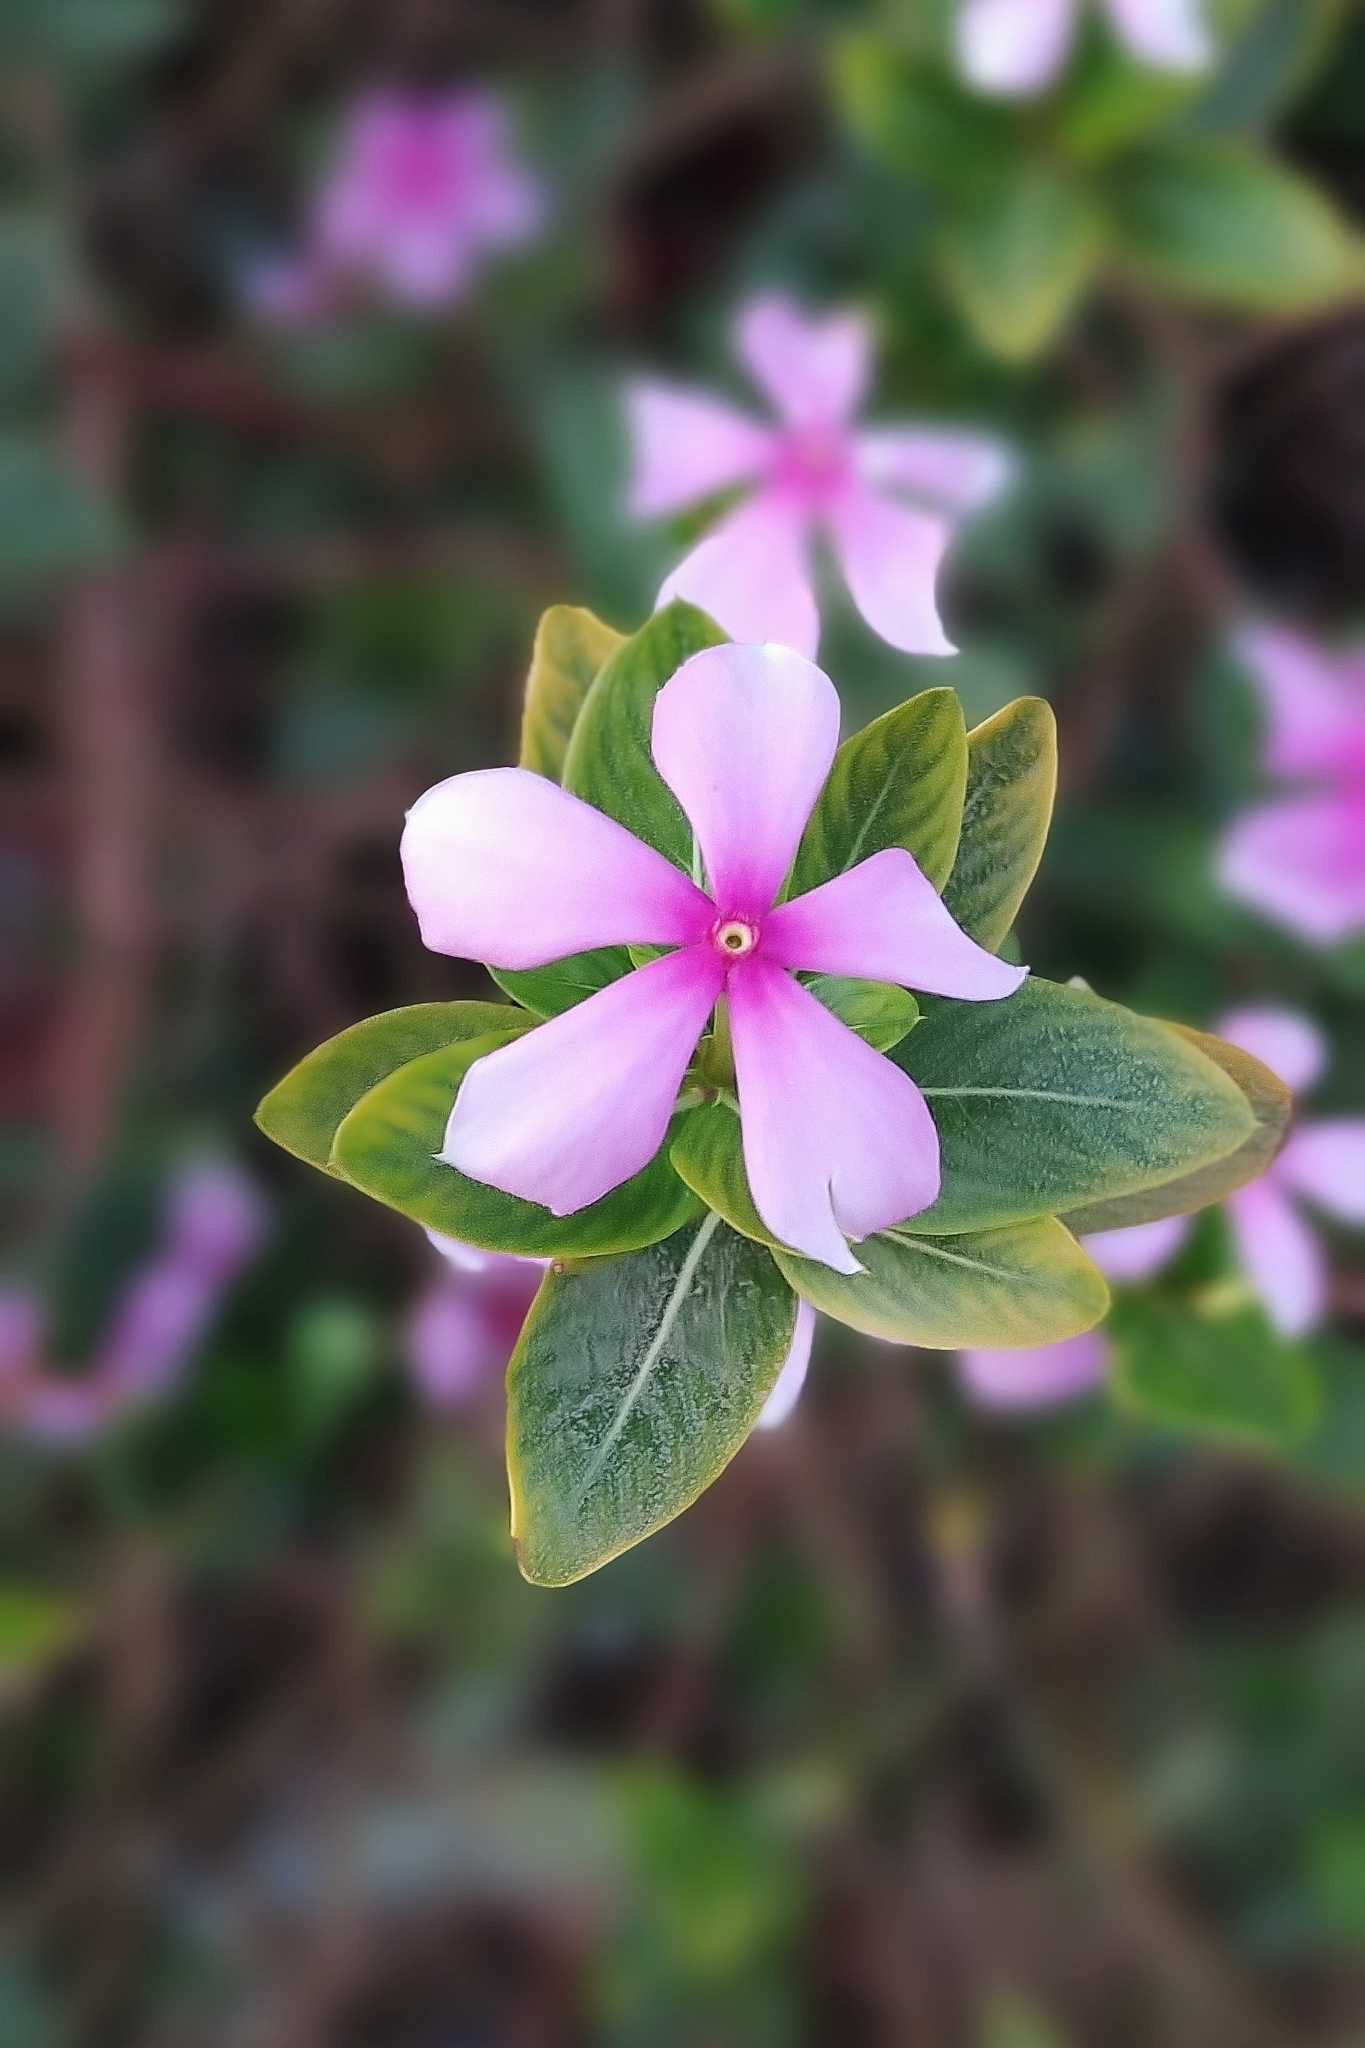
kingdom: Plantae
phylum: Tracheophyta
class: Magnoliopsida
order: Gentianales
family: Apocynaceae
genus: Catharanthus
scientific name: Catharanthus roseus
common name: Madagascar periwinkle
